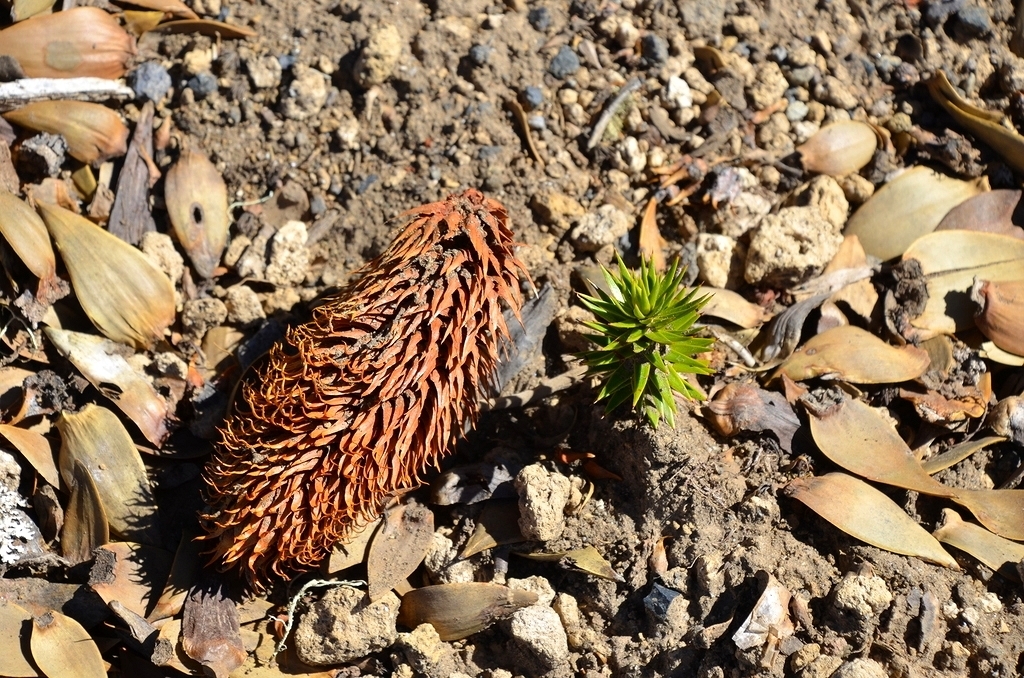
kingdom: Plantae
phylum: Tracheophyta
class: Pinopsida
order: Pinales
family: Araucariaceae
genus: Araucaria
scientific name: Araucaria araucana
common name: Monkey-puzzle
